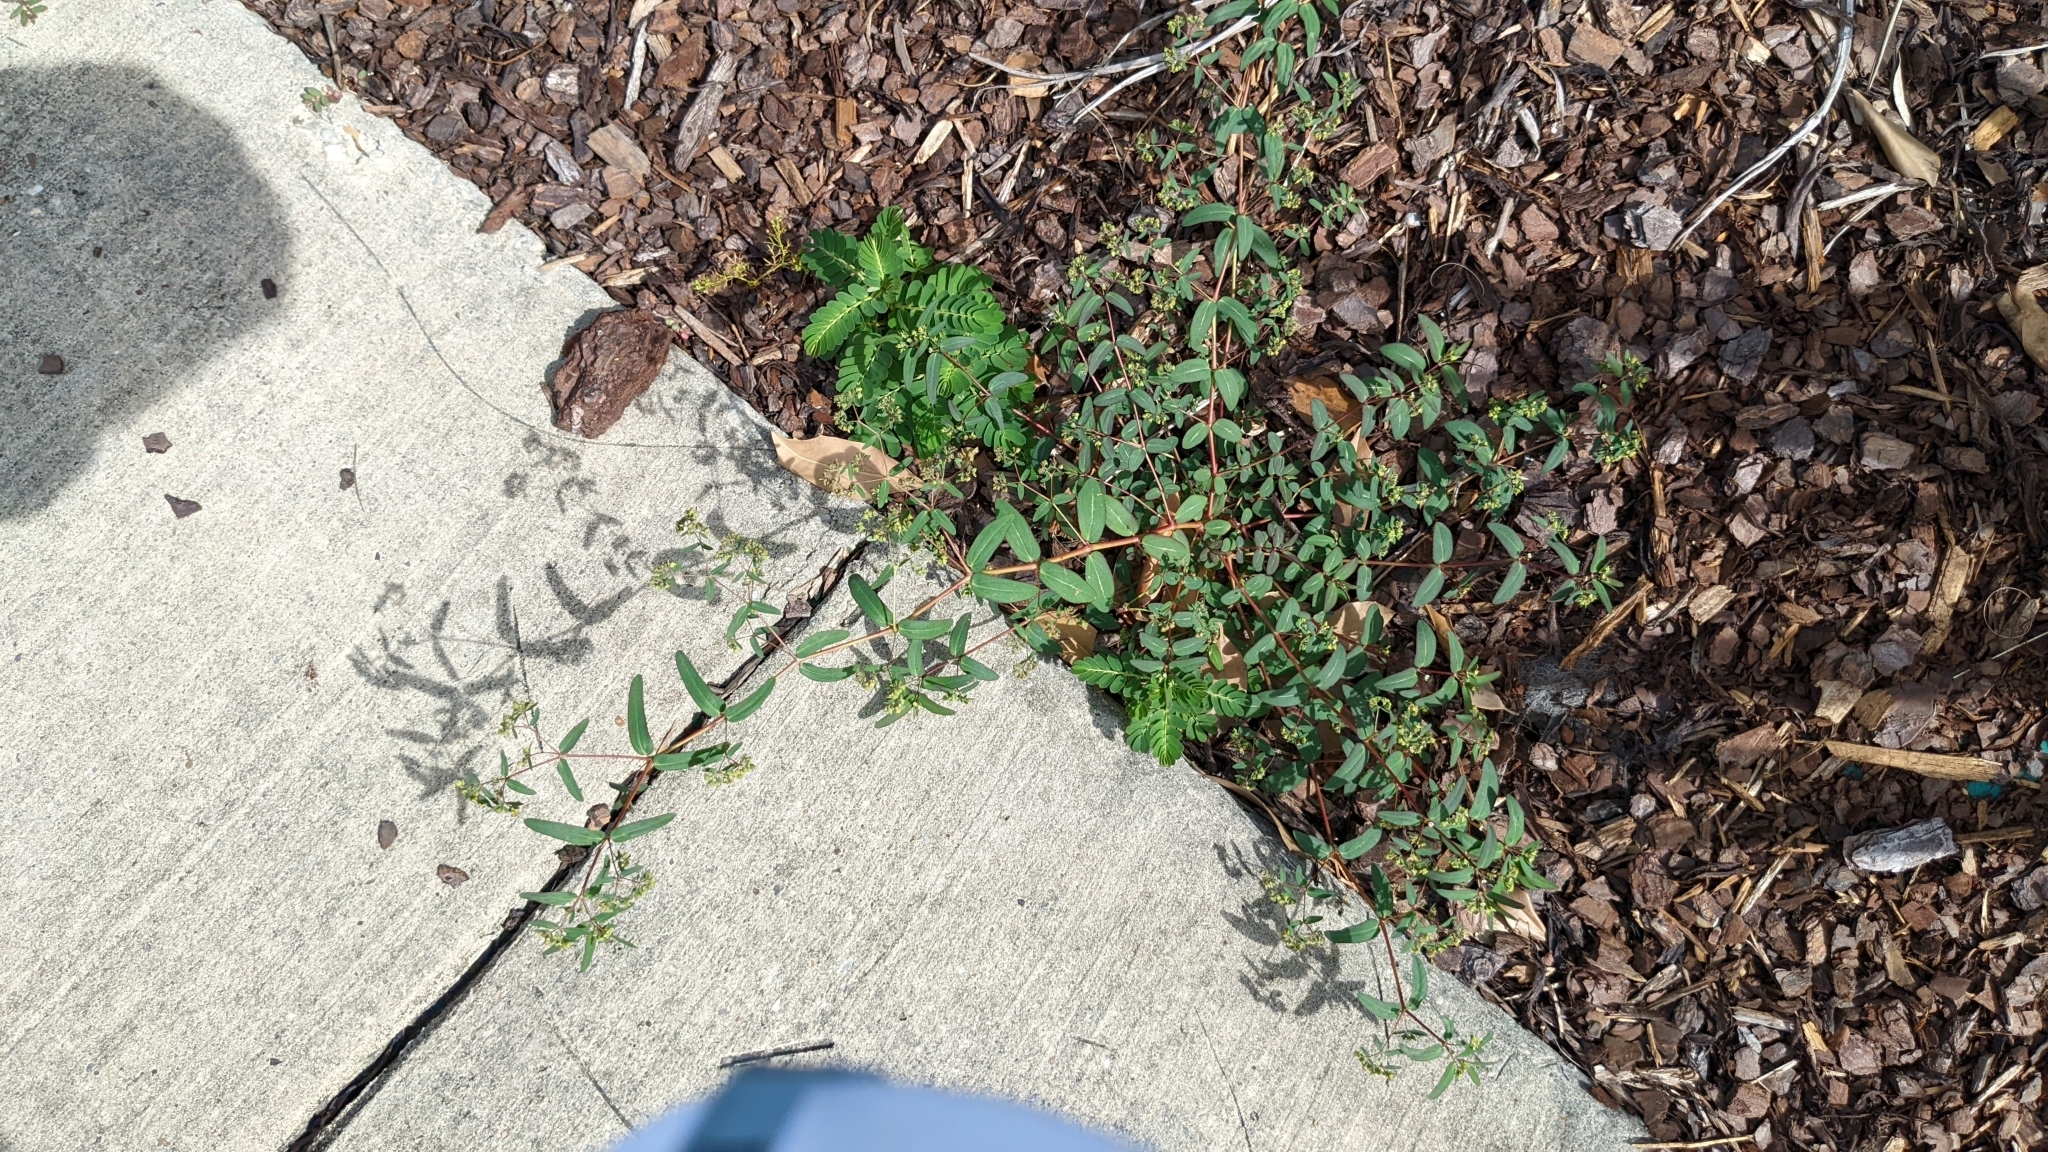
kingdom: Plantae
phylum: Tracheophyta
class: Magnoliopsida
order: Malpighiales
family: Euphorbiaceae
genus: Euphorbia
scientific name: Euphorbia hyssopifolia
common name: Hyssopleaf sandmat
